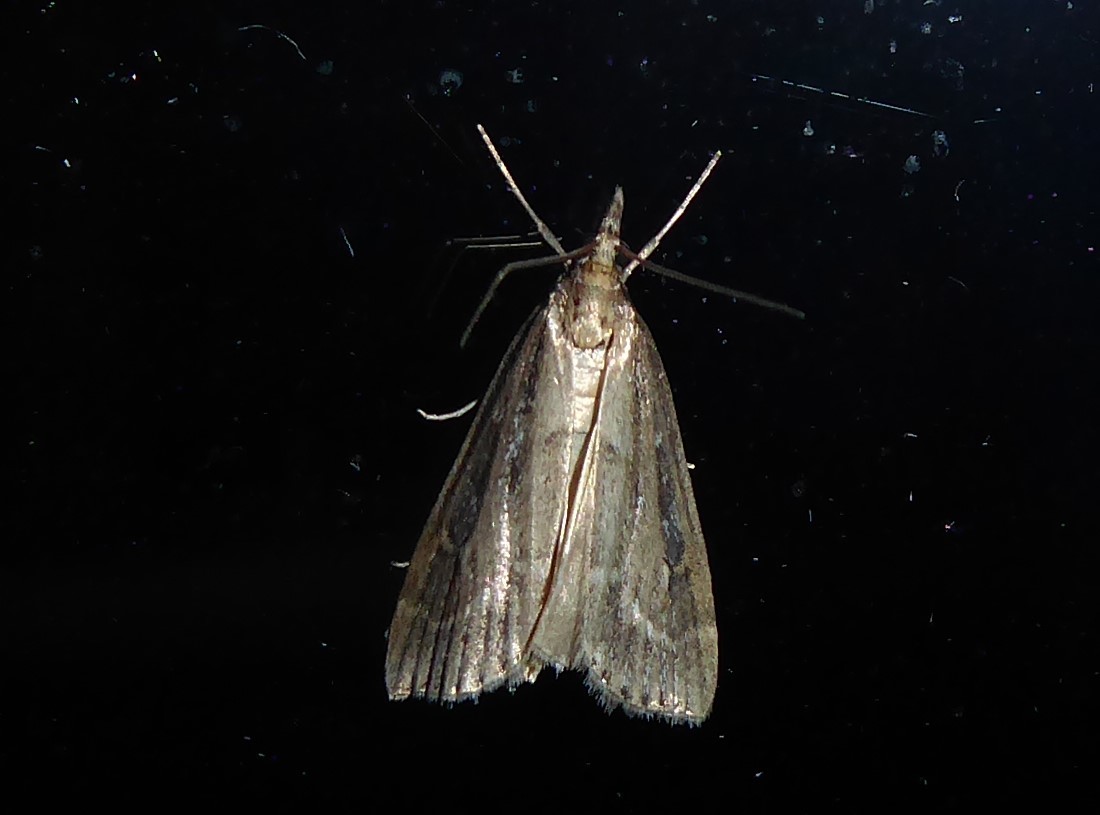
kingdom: Animalia
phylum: Arthropoda
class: Insecta
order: Lepidoptera
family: Crambidae
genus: Eudonia
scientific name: Eudonia octophora
